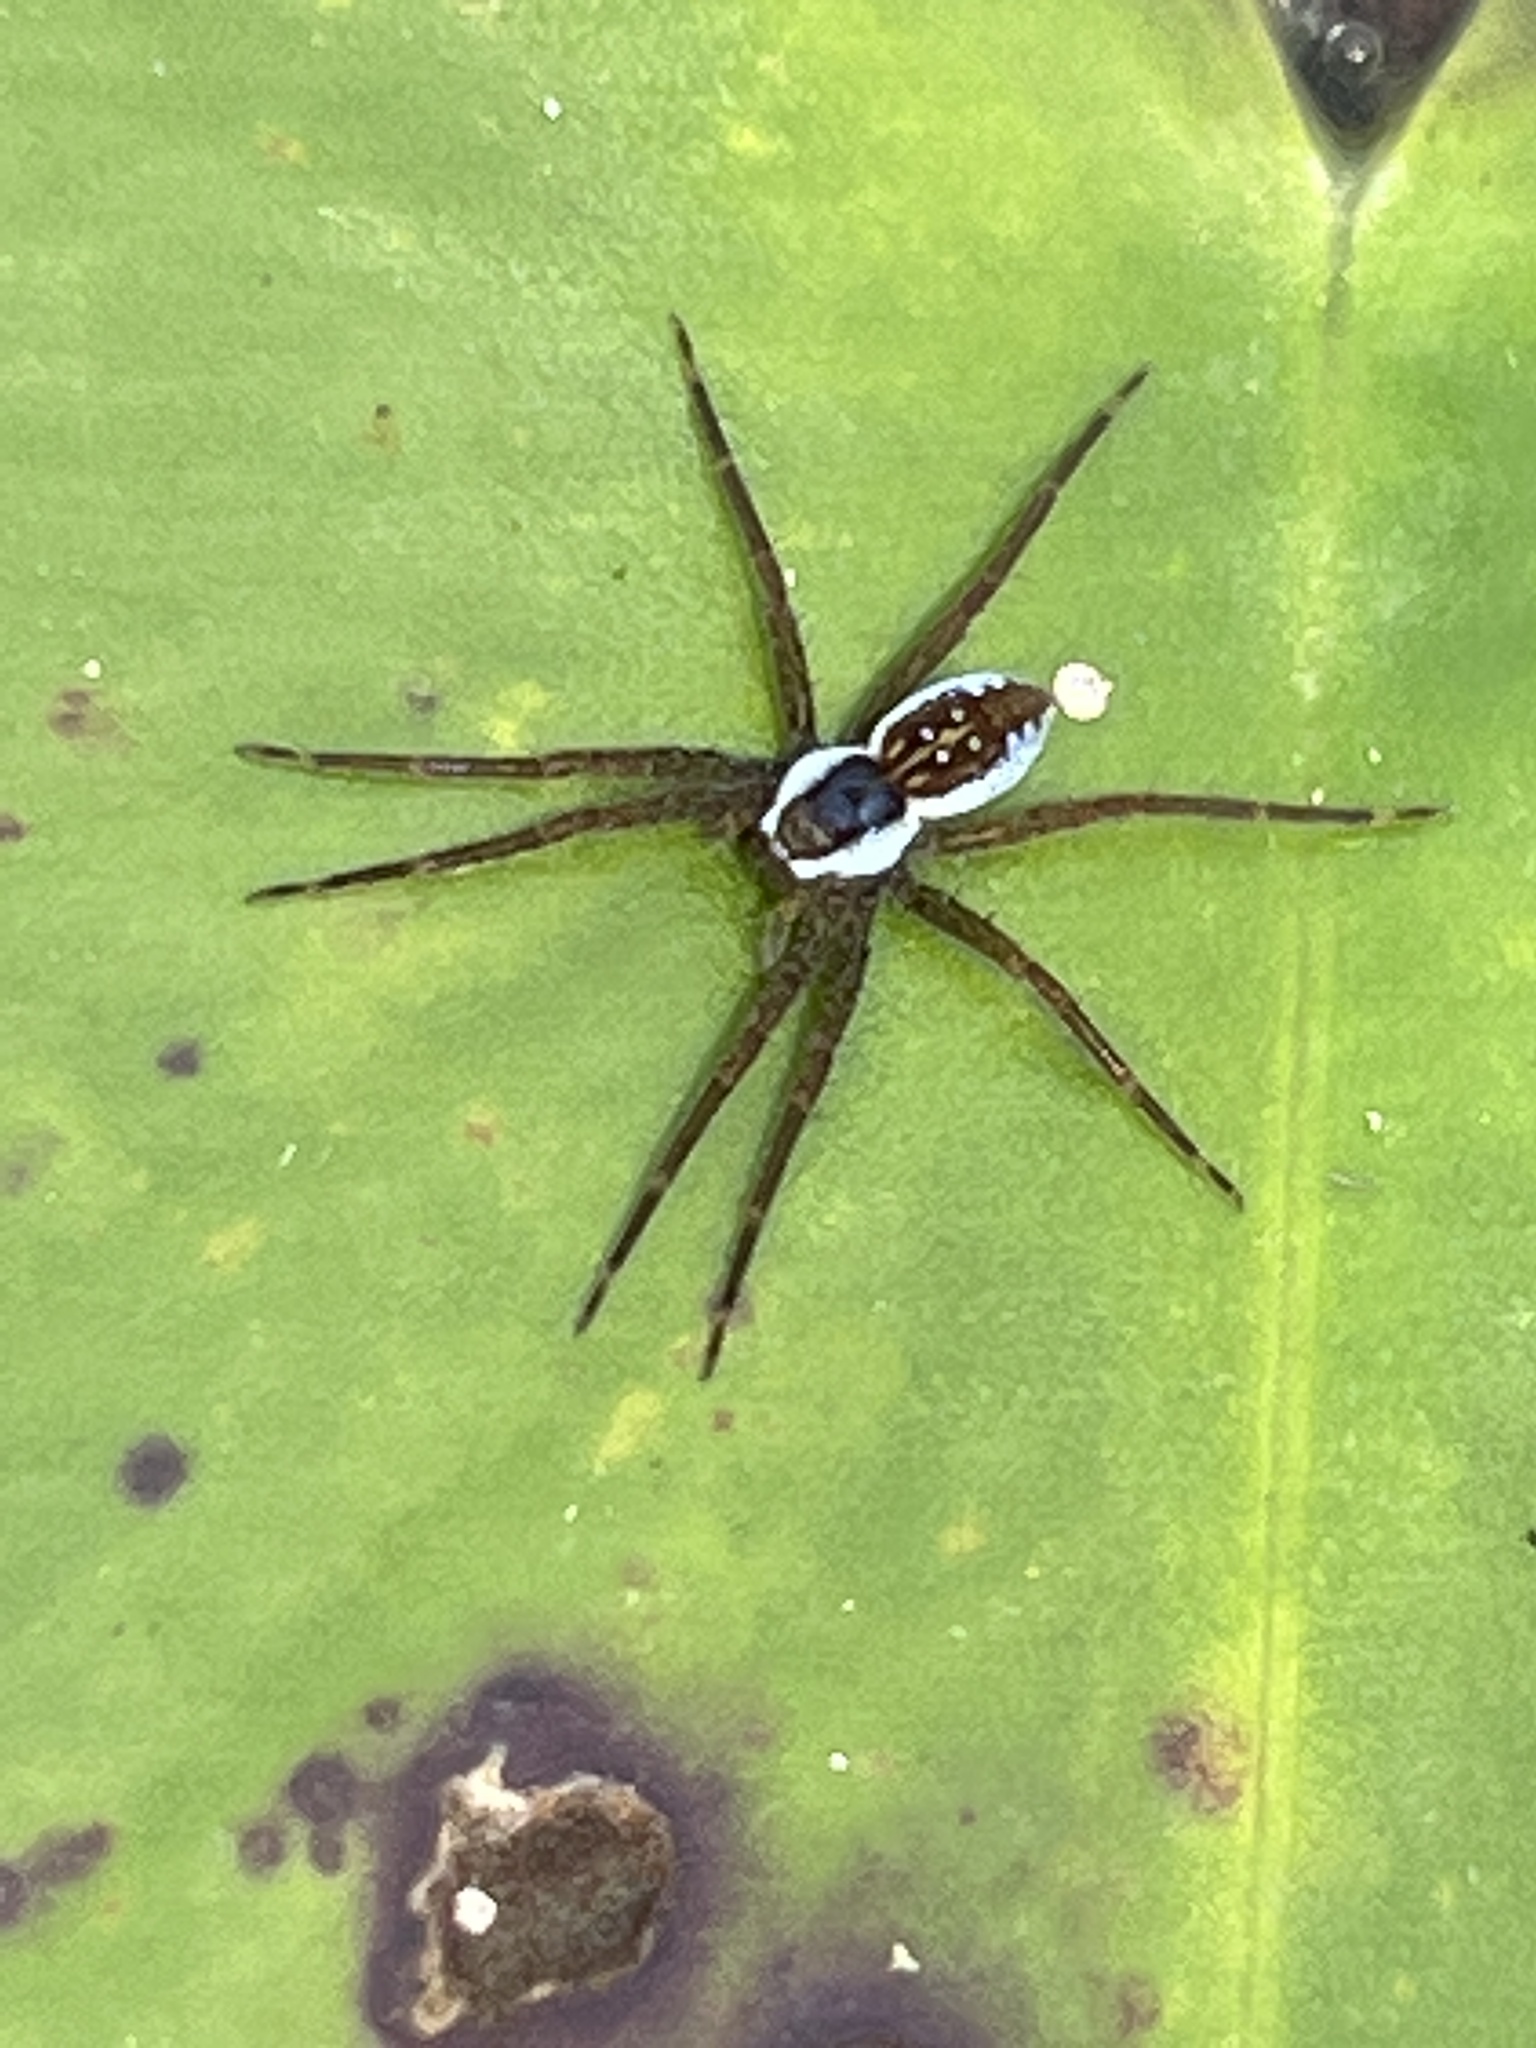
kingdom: Animalia
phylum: Arthropoda
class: Arachnida
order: Araneae
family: Pisauridae
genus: Dolomedes
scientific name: Dolomedes triton
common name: Six-spotted fishing spider
